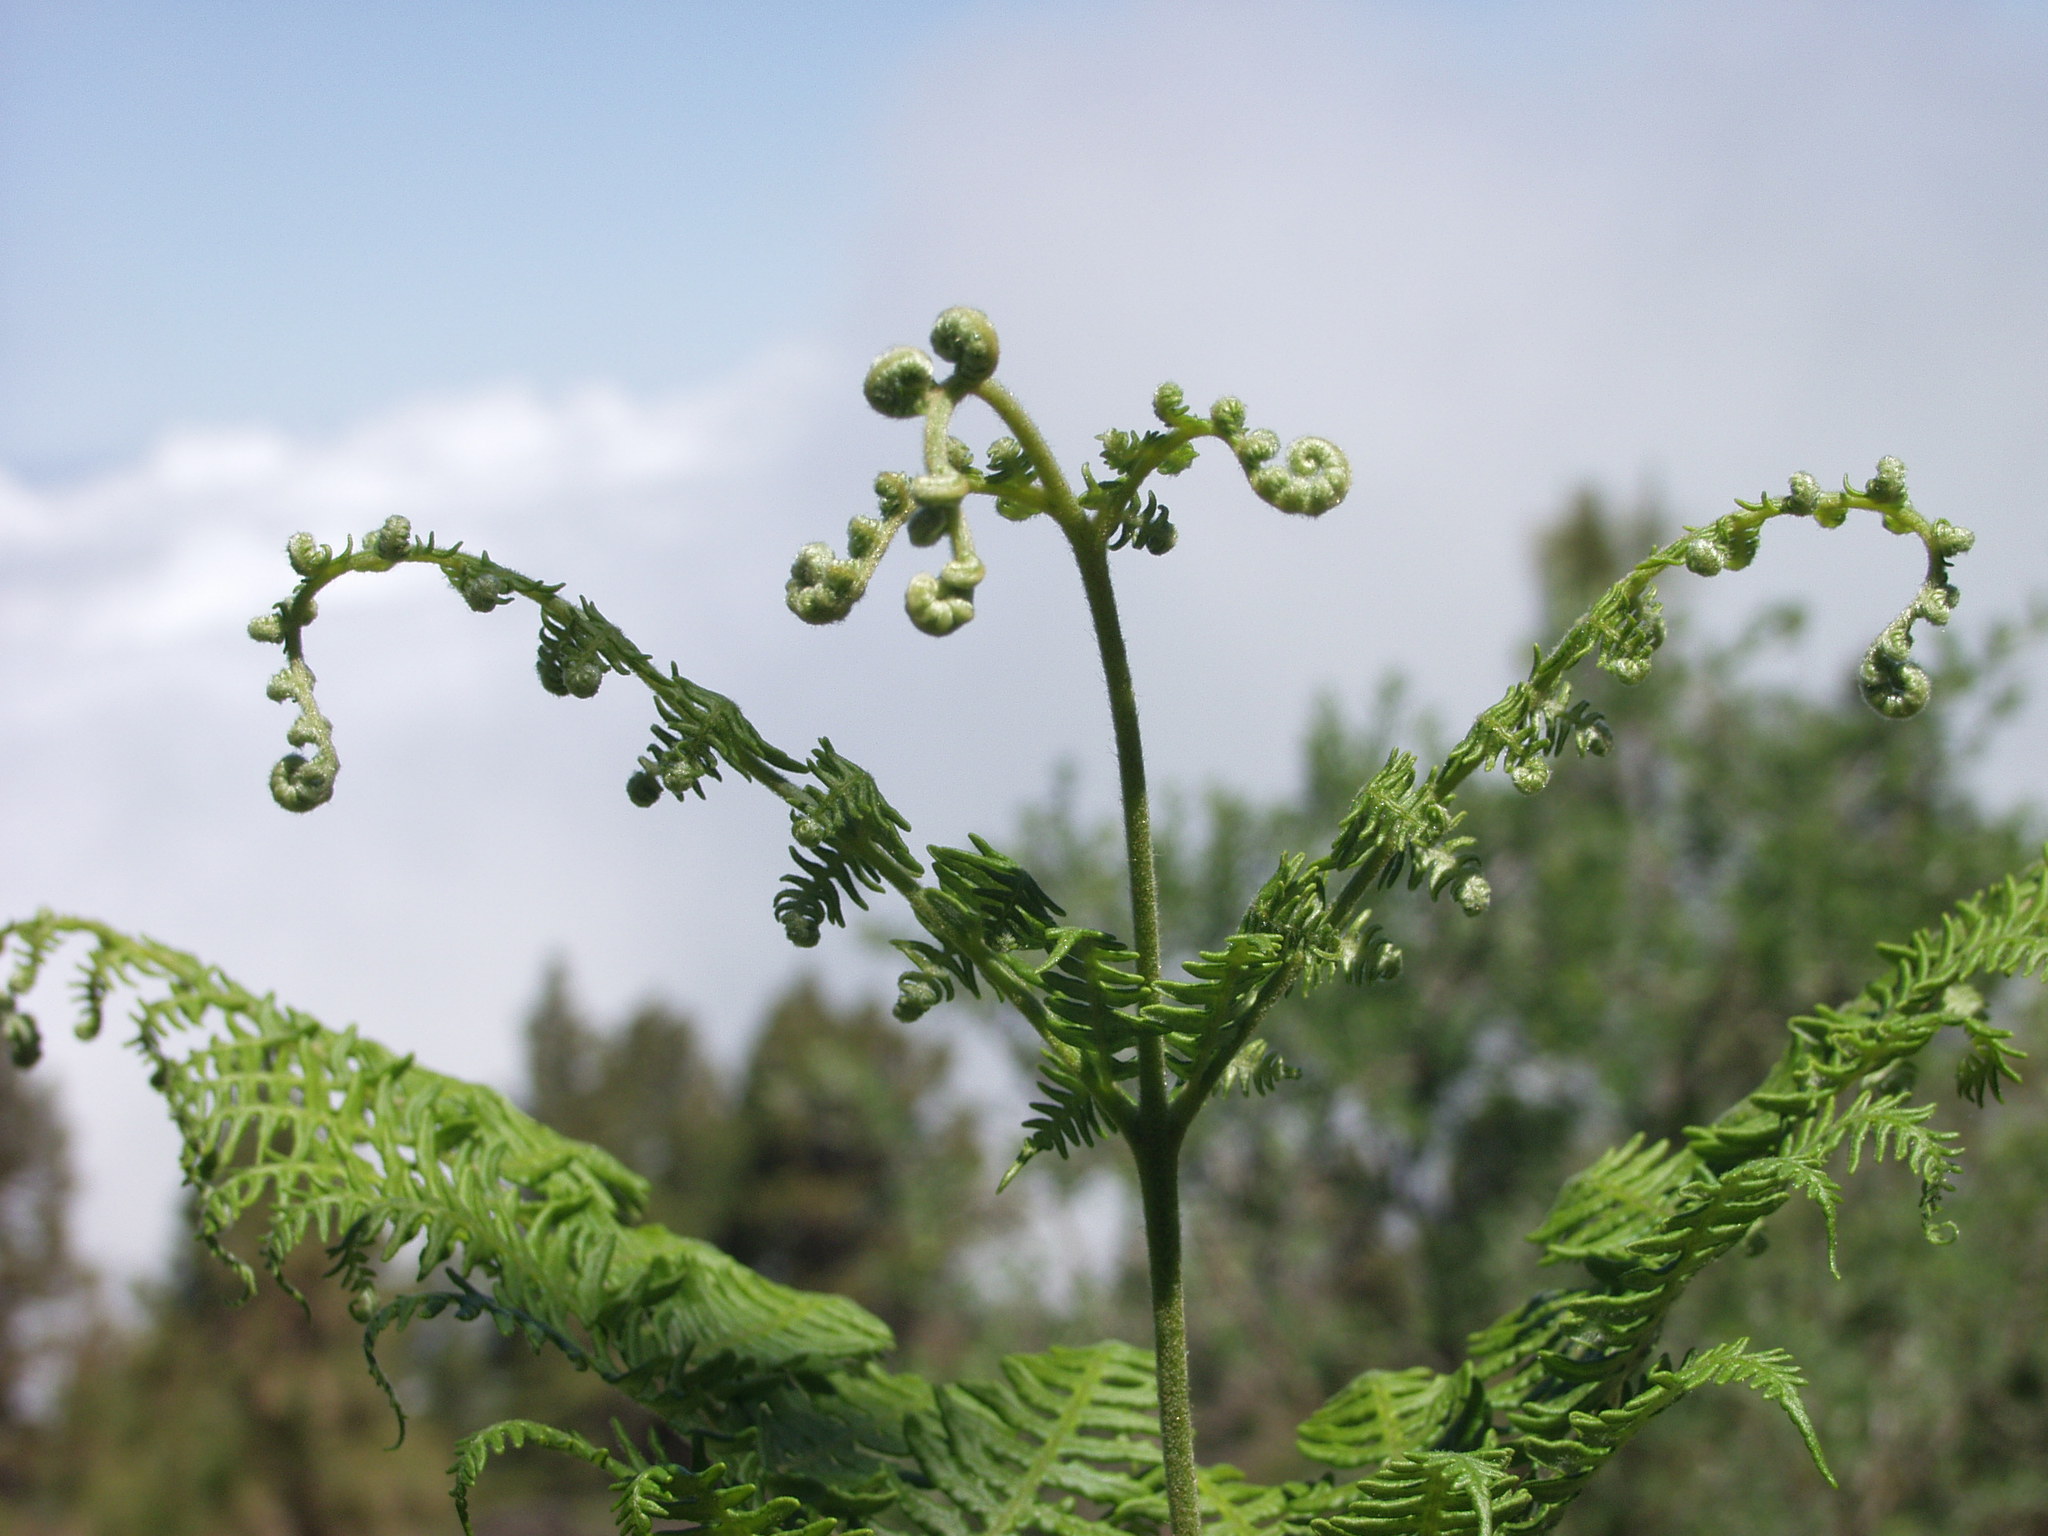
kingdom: Plantae
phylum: Tracheophyta
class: Polypodiopsida
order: Polypodiales
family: Dennstaedtiaceae
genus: Pteridium
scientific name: Pteridium aquilinum
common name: Bracken
